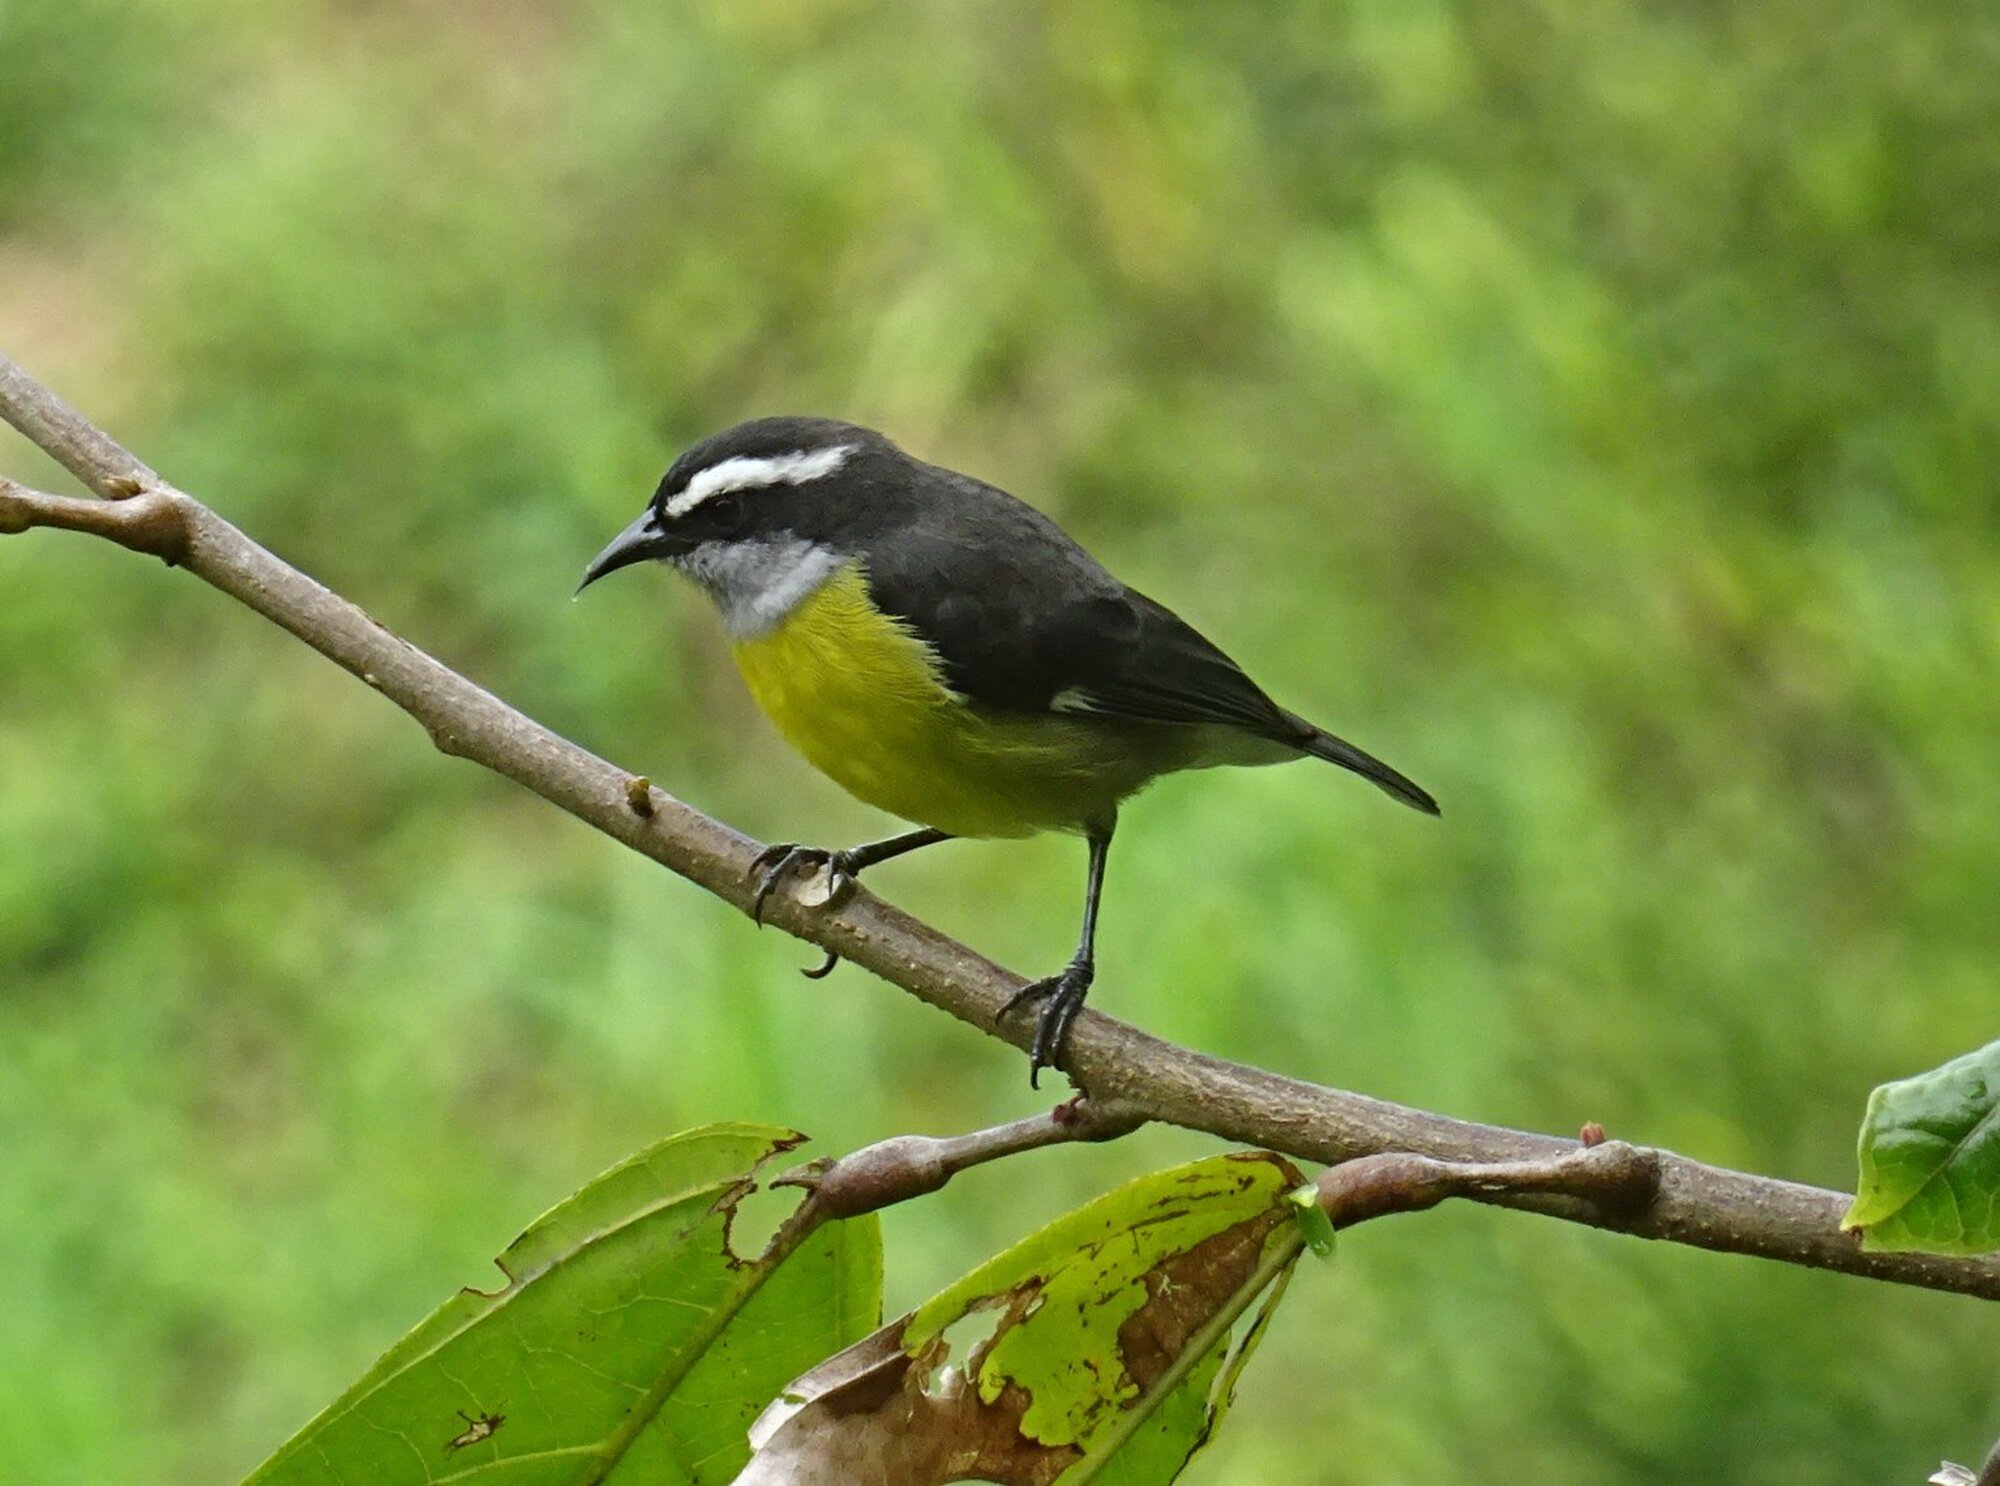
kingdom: Animalia
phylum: Chordata
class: Aves
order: Passeriformes
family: Thraupidae
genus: Coereba
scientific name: Coereba flaveola
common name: Bananaquit
